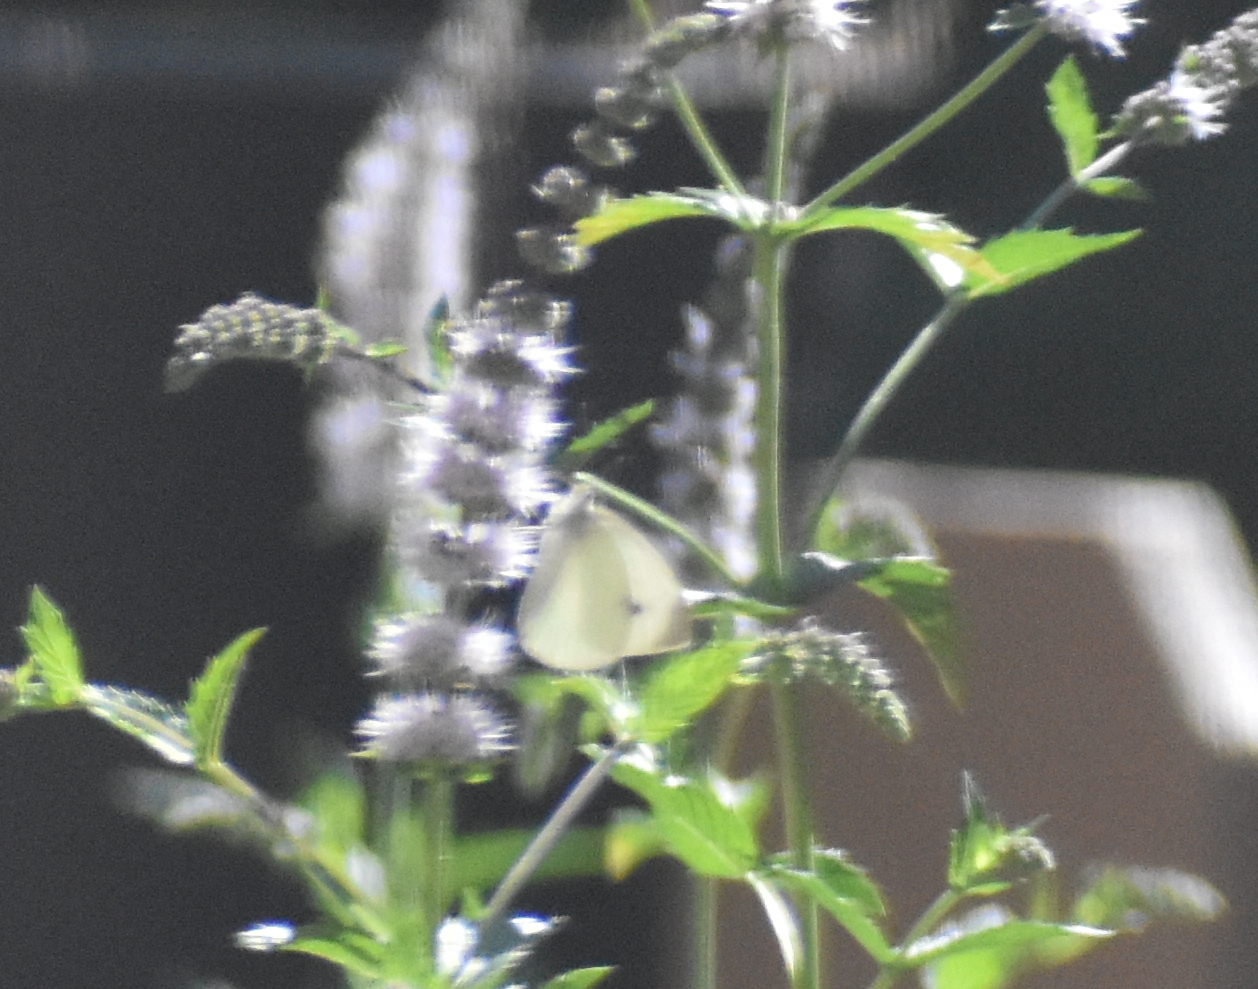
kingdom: Animalia
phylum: Arthropoda
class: Insecta
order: Lepidoptera
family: Pieridae
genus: Pieris
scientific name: Pieris rapae
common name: Small white
